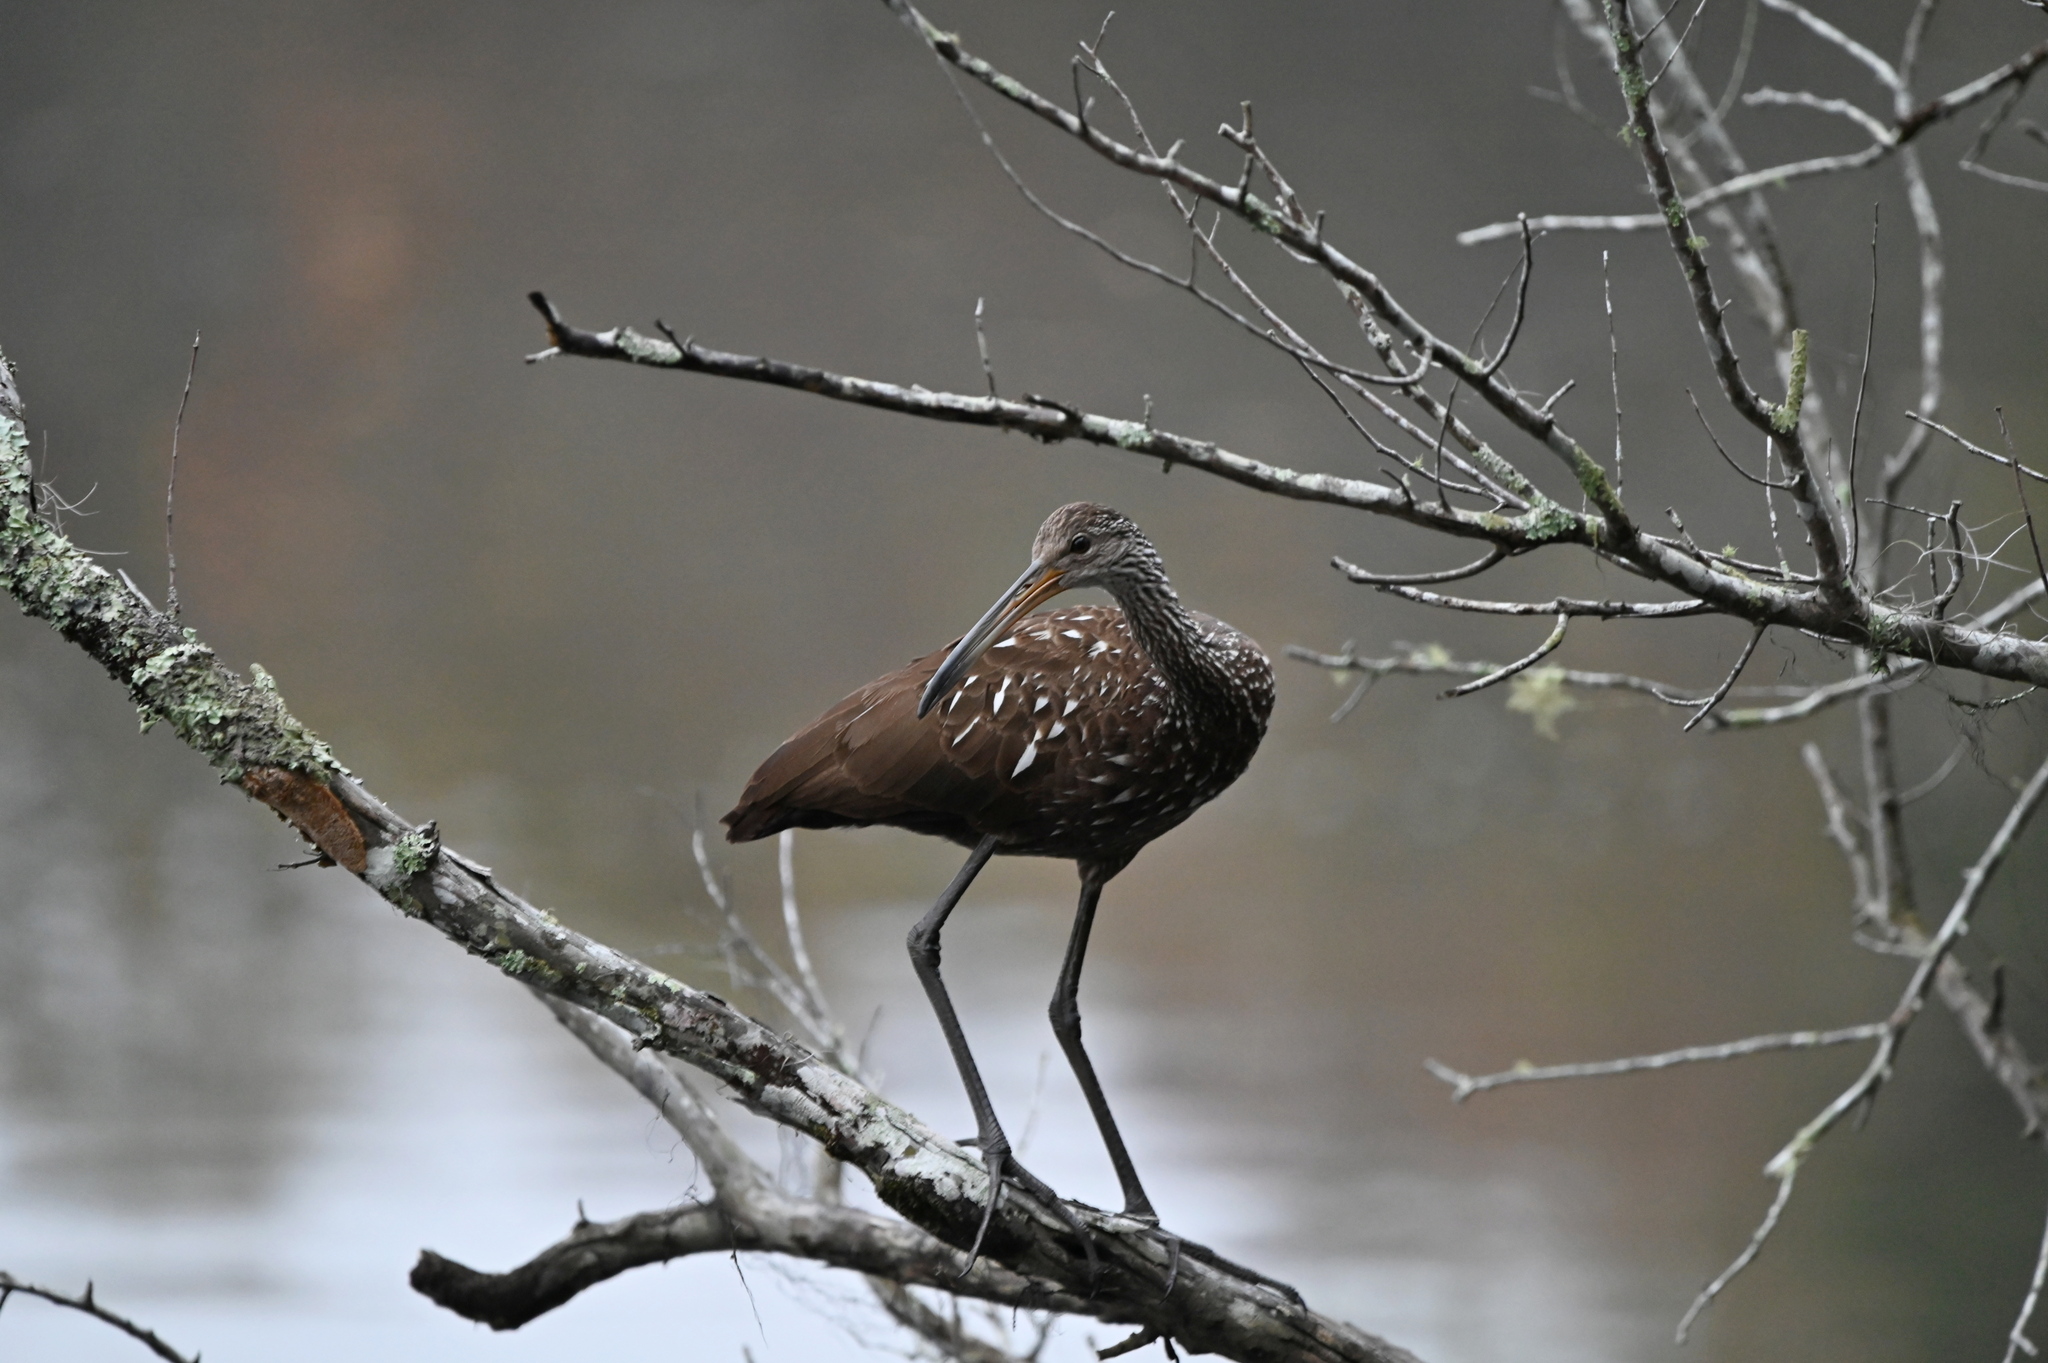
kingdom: Animalia
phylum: Chordata
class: Aves
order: Gruiformes
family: Aramidae
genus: Aramus
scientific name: Aramus guarauna
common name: Limpkin
